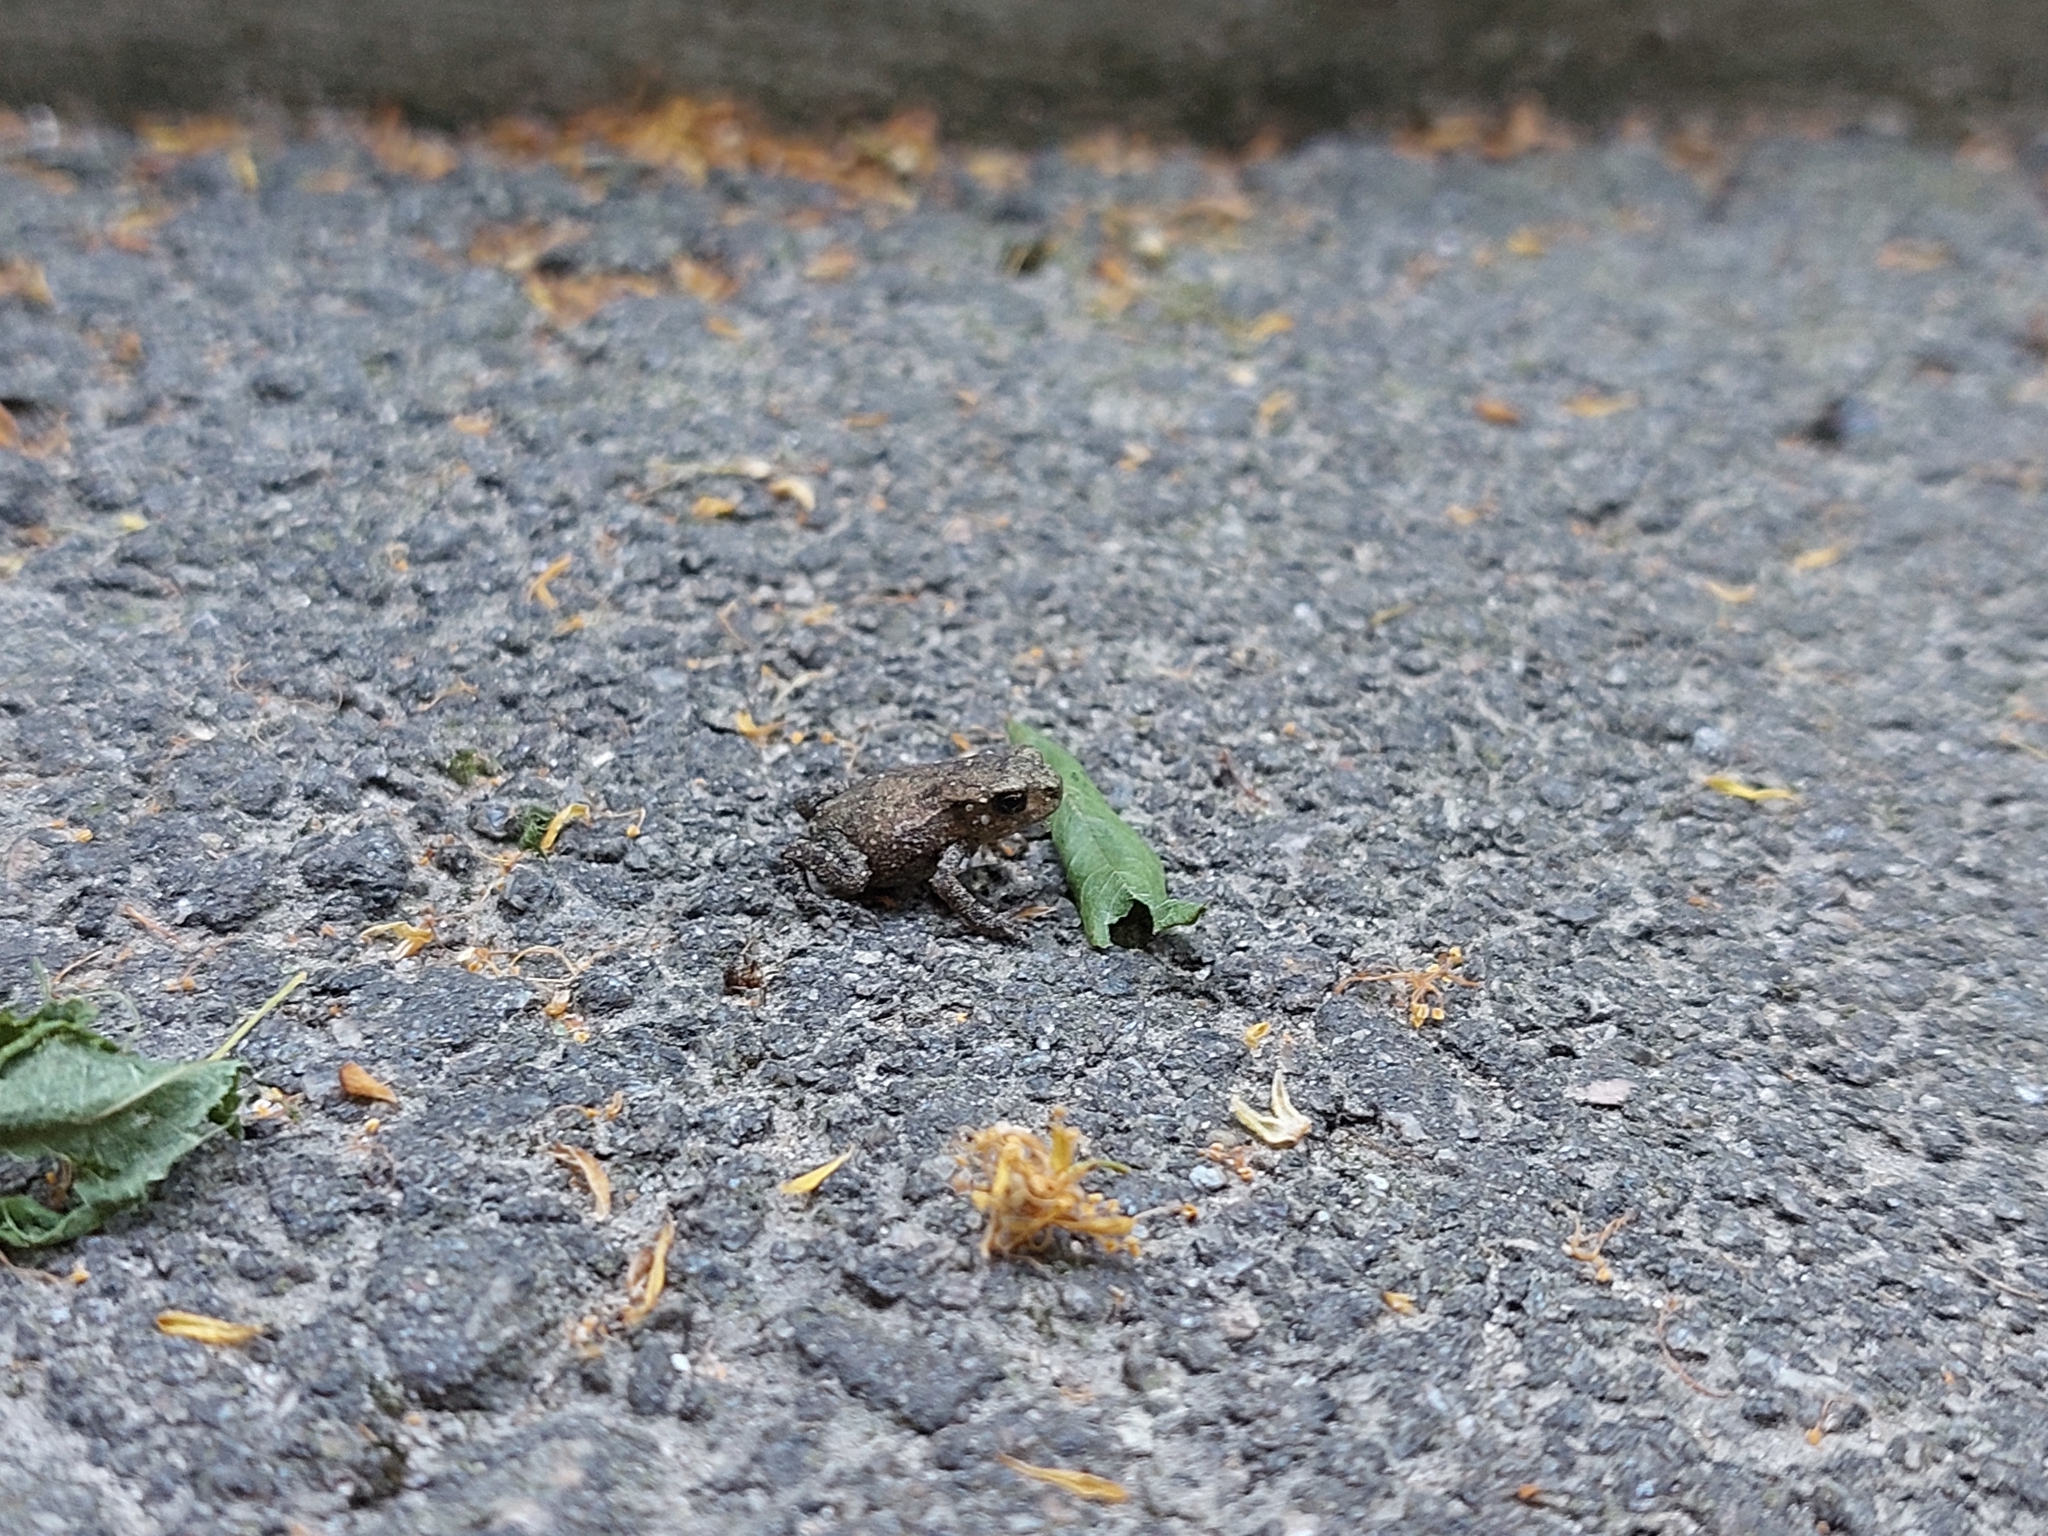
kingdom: Animalia
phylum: Chordata
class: Amphibia
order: Anura
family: Bufonidae
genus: Bufo
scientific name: Bufo bufo
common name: Common toad
